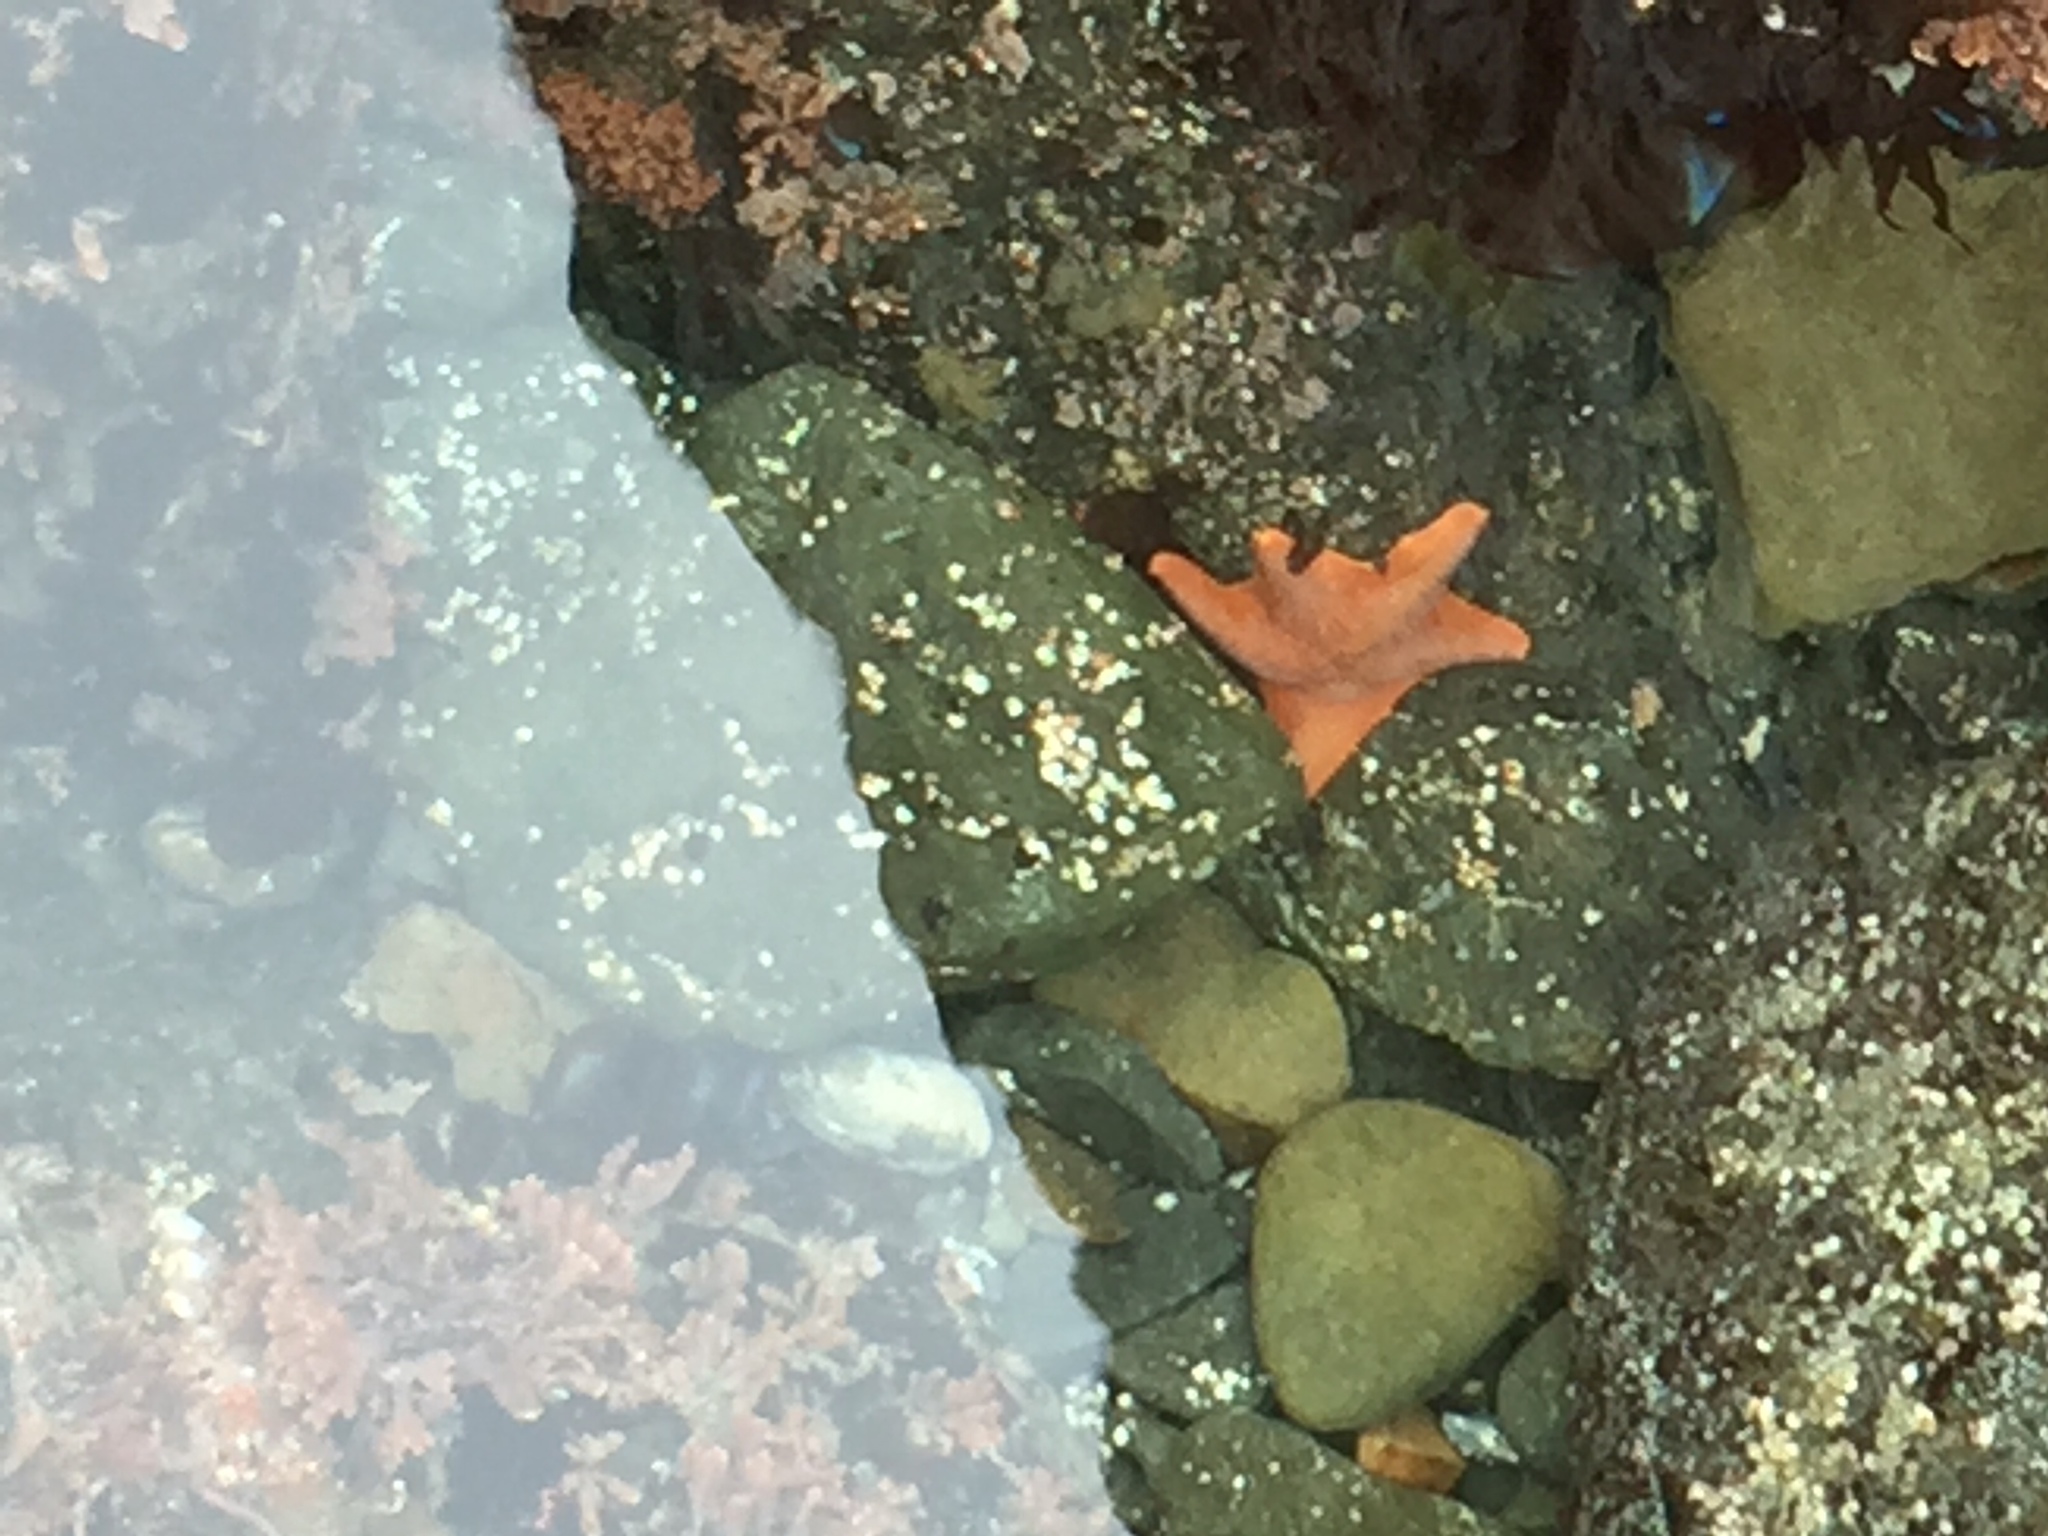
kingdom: Animalia
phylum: Echinodermata
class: Asteroidea
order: Valvatida
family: Asterinidae
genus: Patiria
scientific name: Patiria miniata
